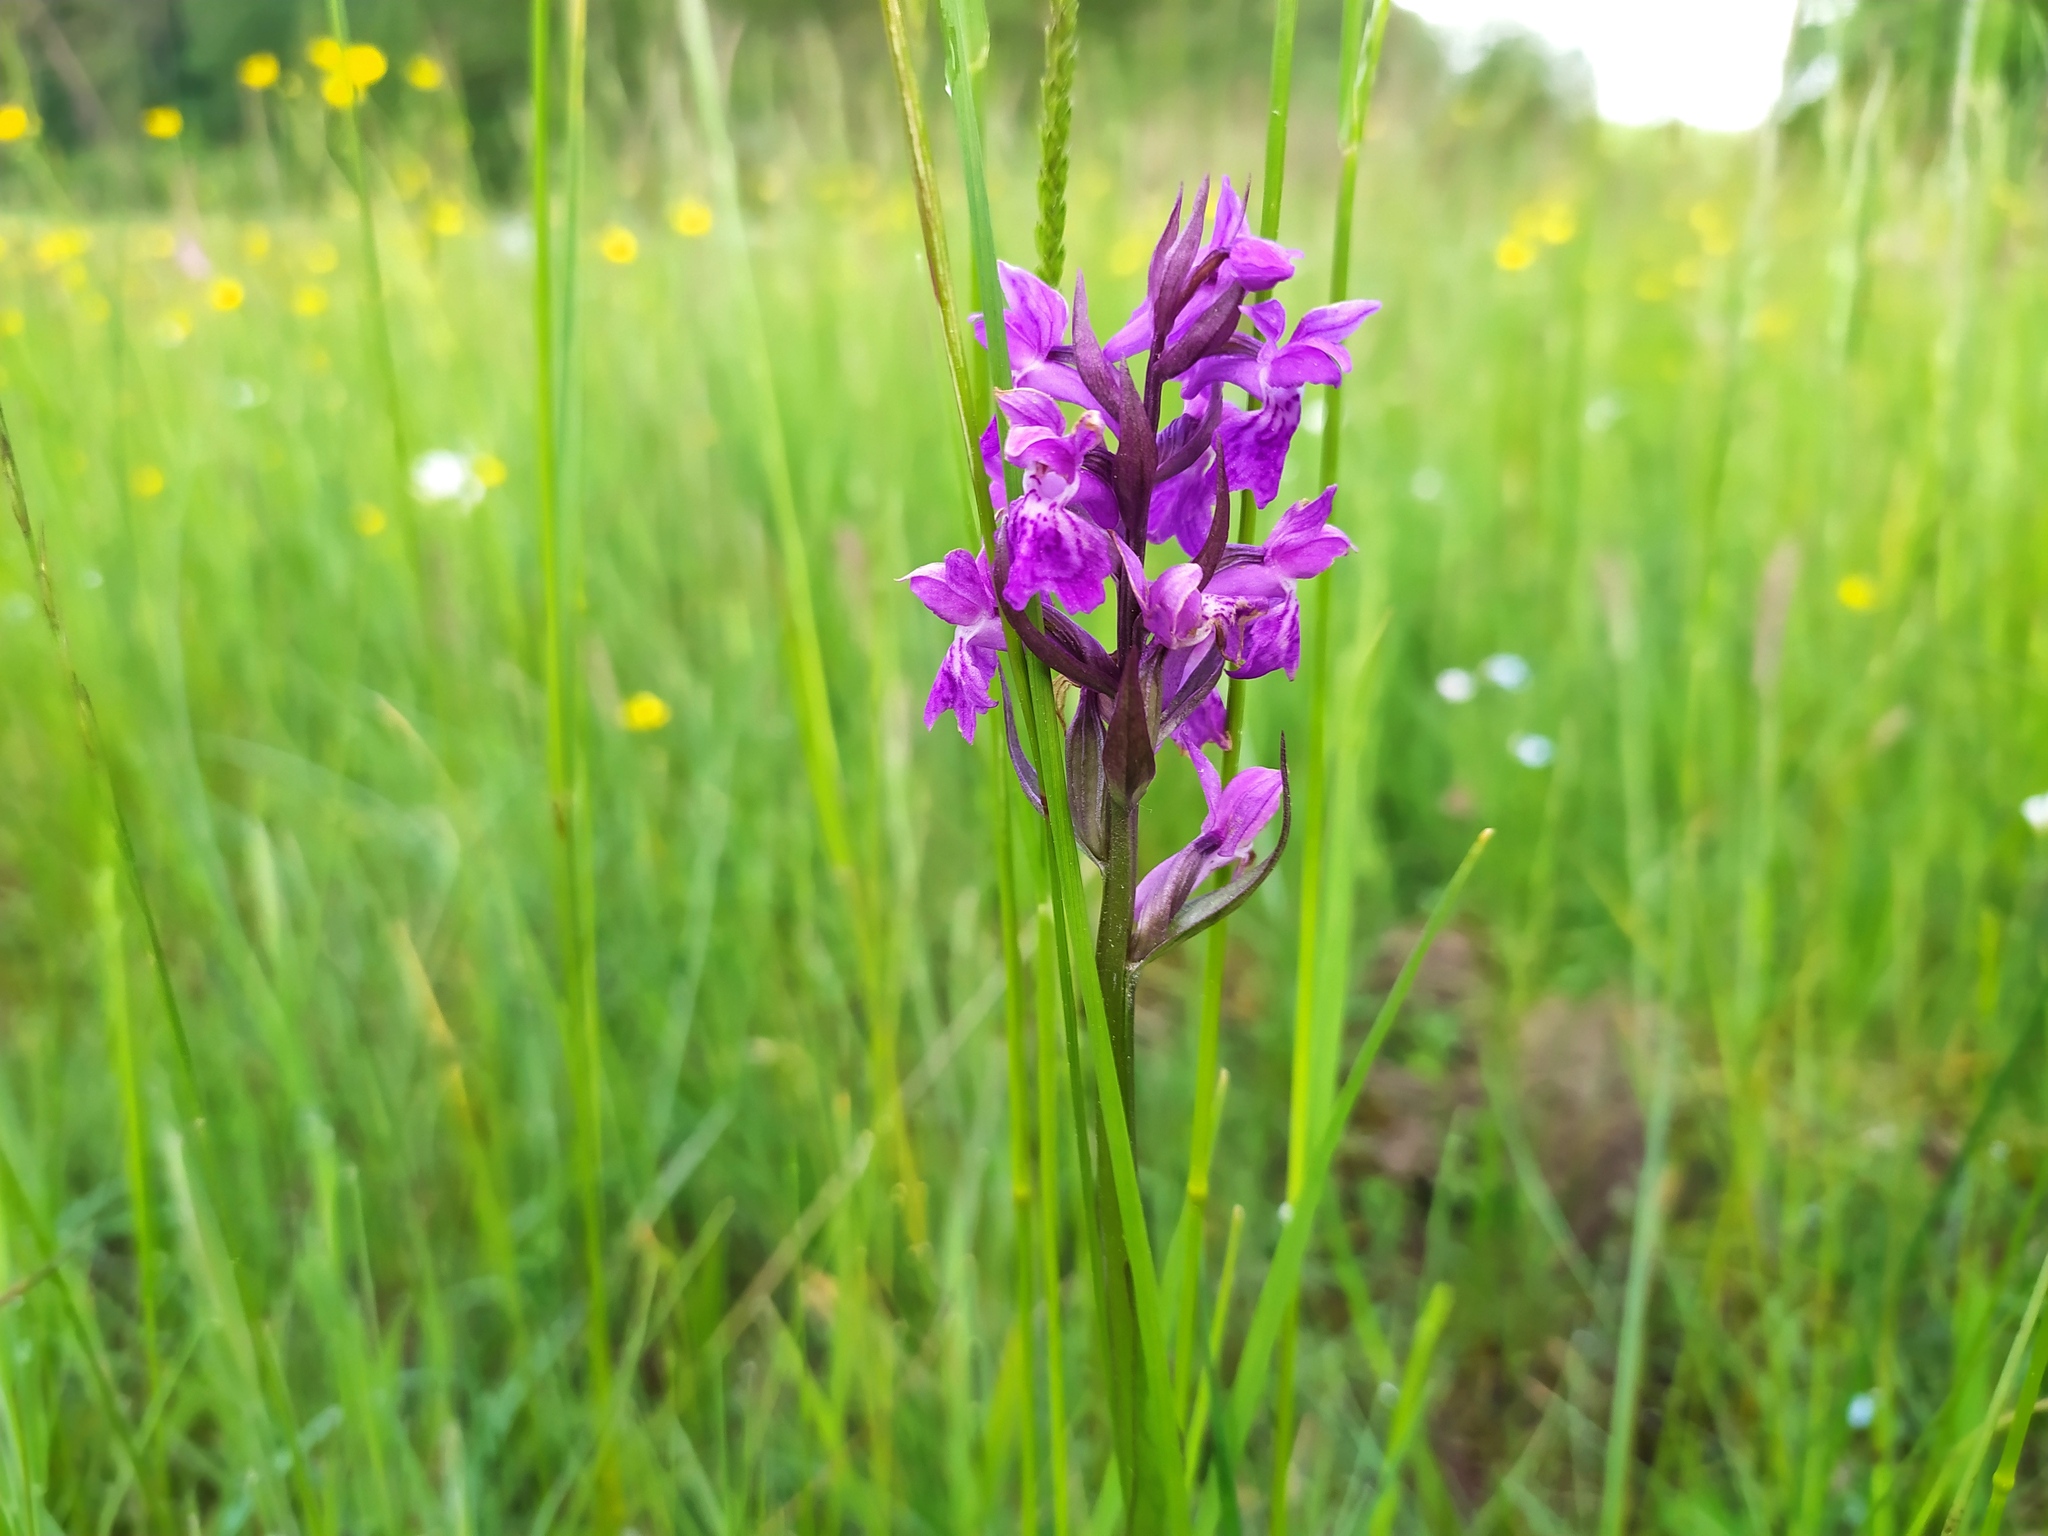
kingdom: Plantae
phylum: Tracheophyta
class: Liliopsida
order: Asparagales
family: Orchidaceae
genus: Dactylorhiza
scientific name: Dactylorhiza majalis
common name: Marsh orchid
